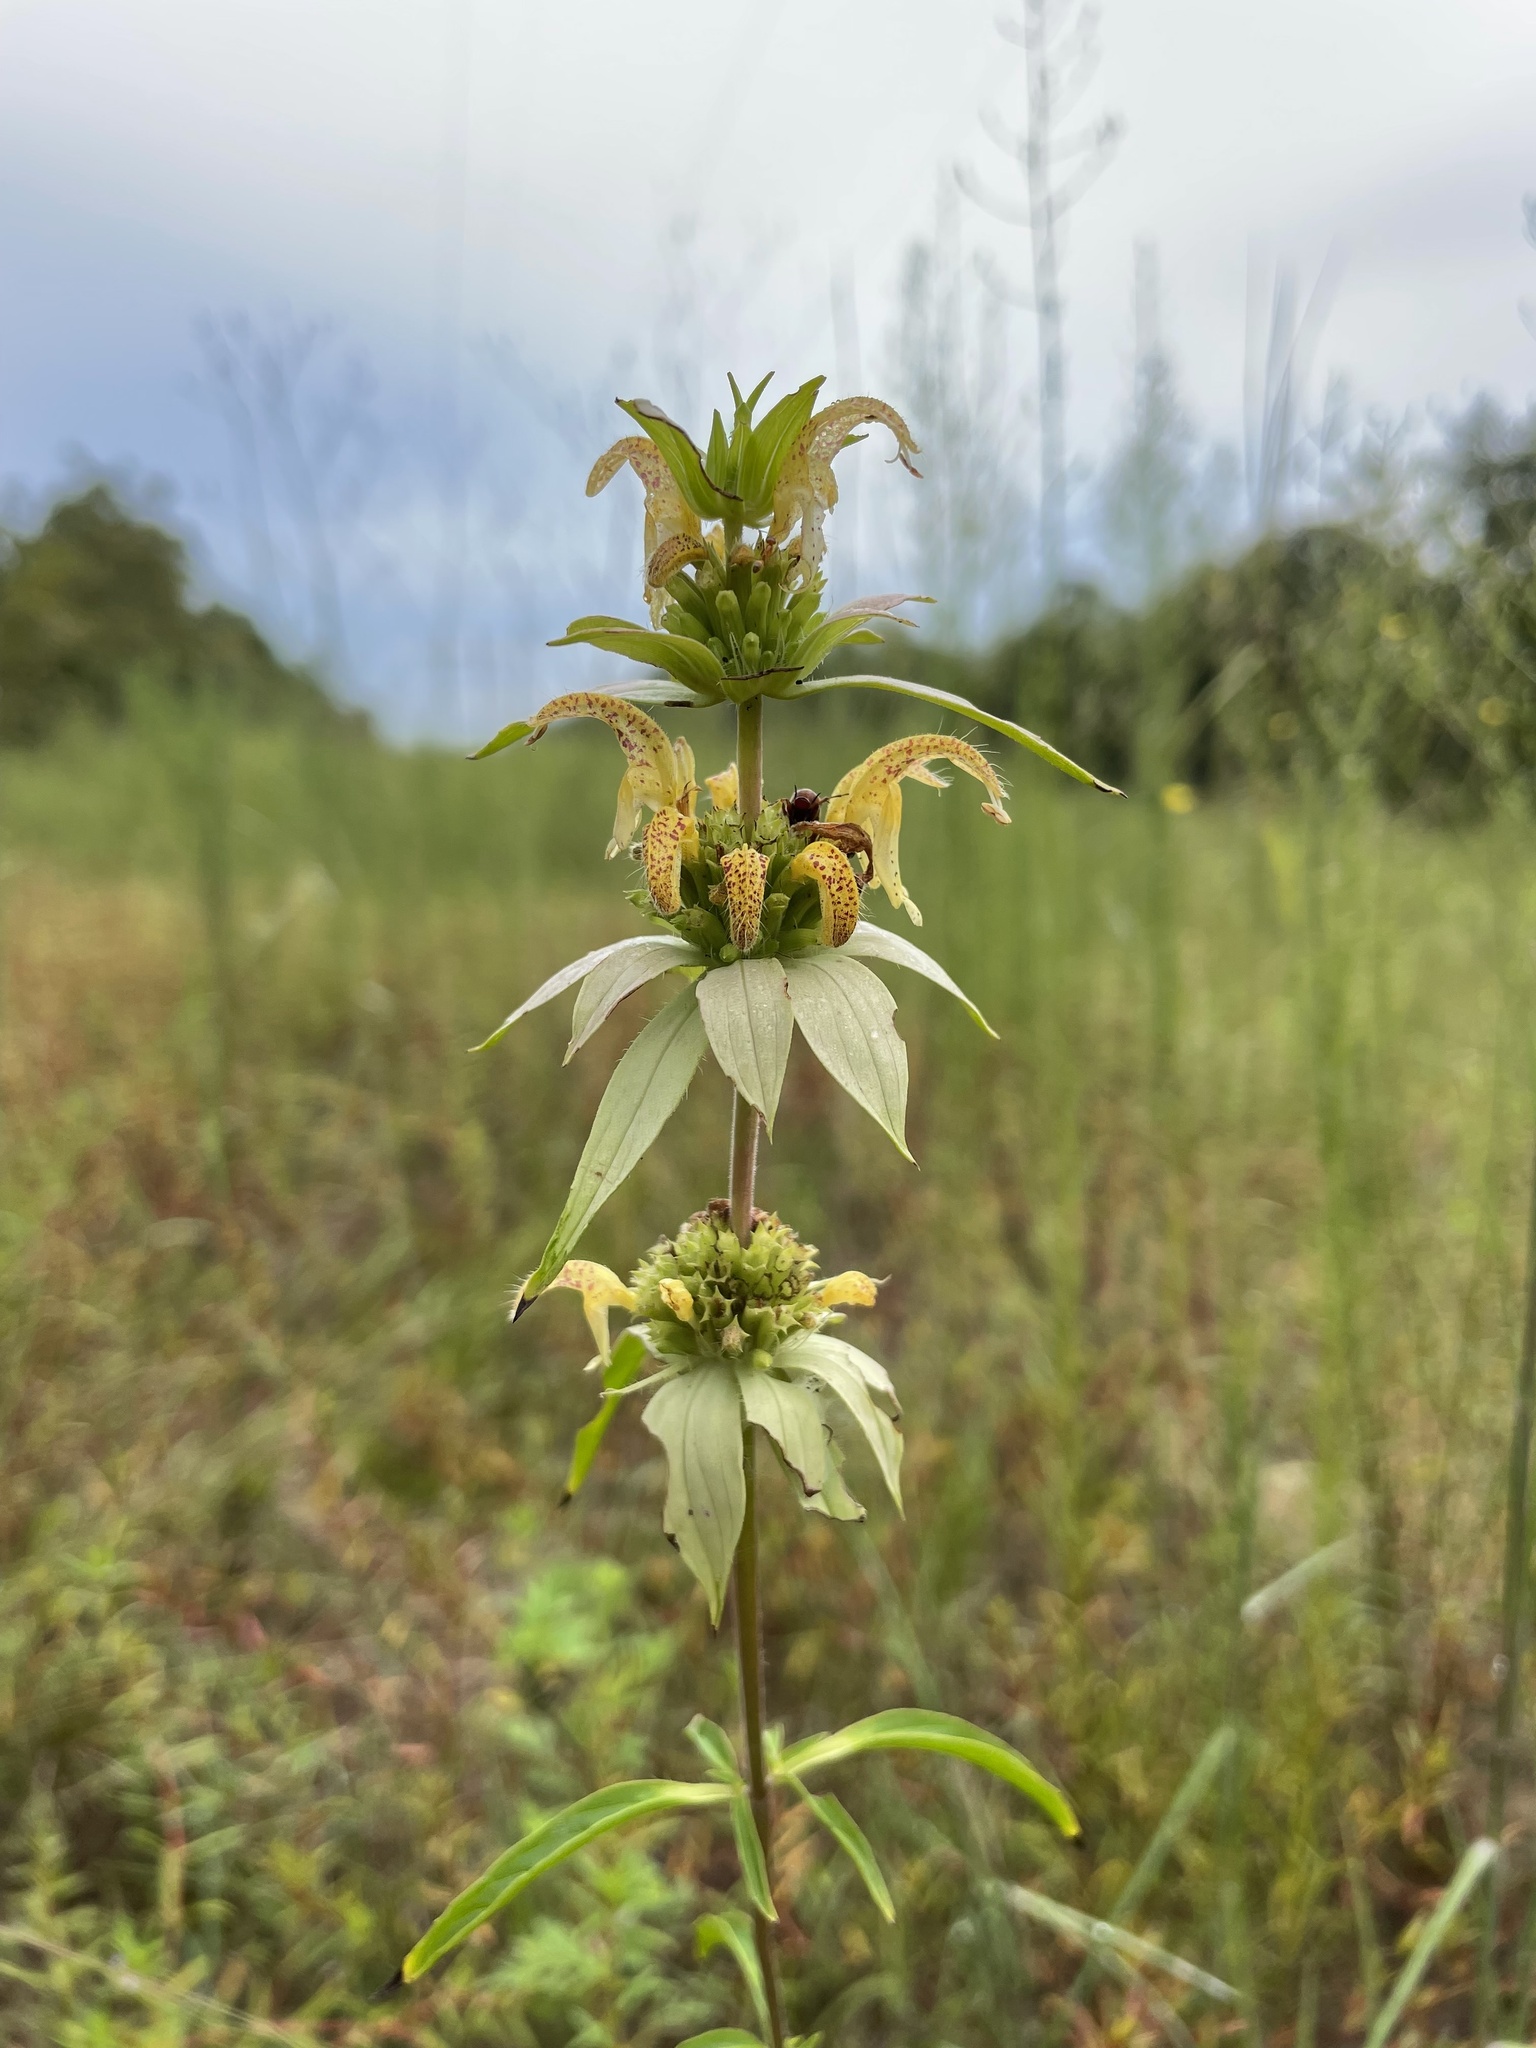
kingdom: Plantae
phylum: Tracheophyta
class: Magnoliopsida
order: Lamiales
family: Lamiaceae
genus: Monarda
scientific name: Monarda punctata
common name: Dotted monarda
